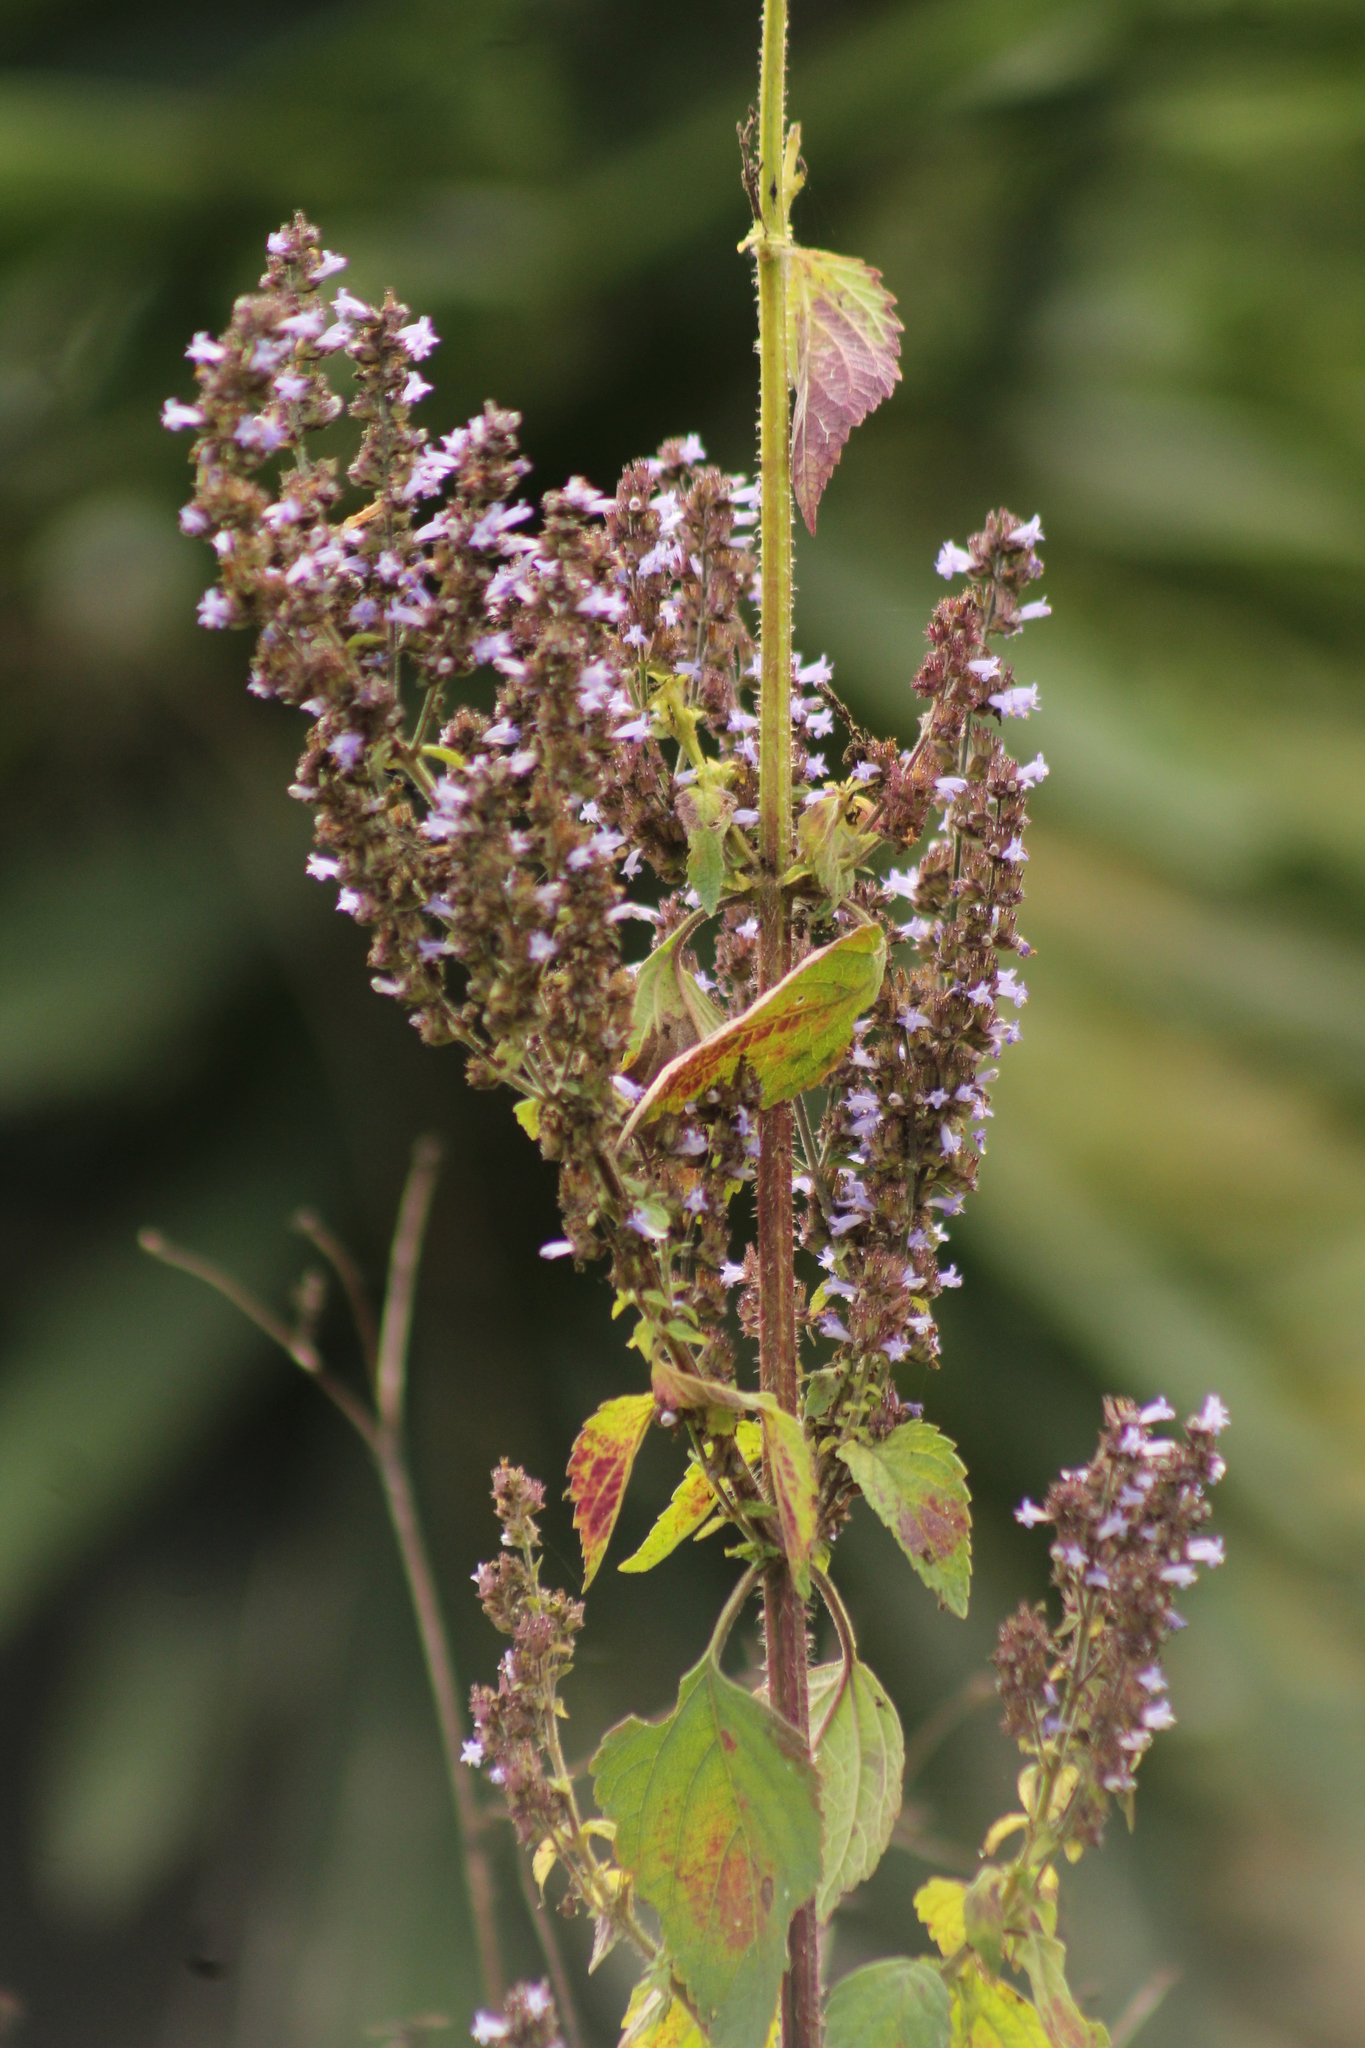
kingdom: Plantae
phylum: Tracheophyta
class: Magnoliopsida
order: Lamiales
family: Lamiaceae
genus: Cantinoa
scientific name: Cantinoa mutabilis
